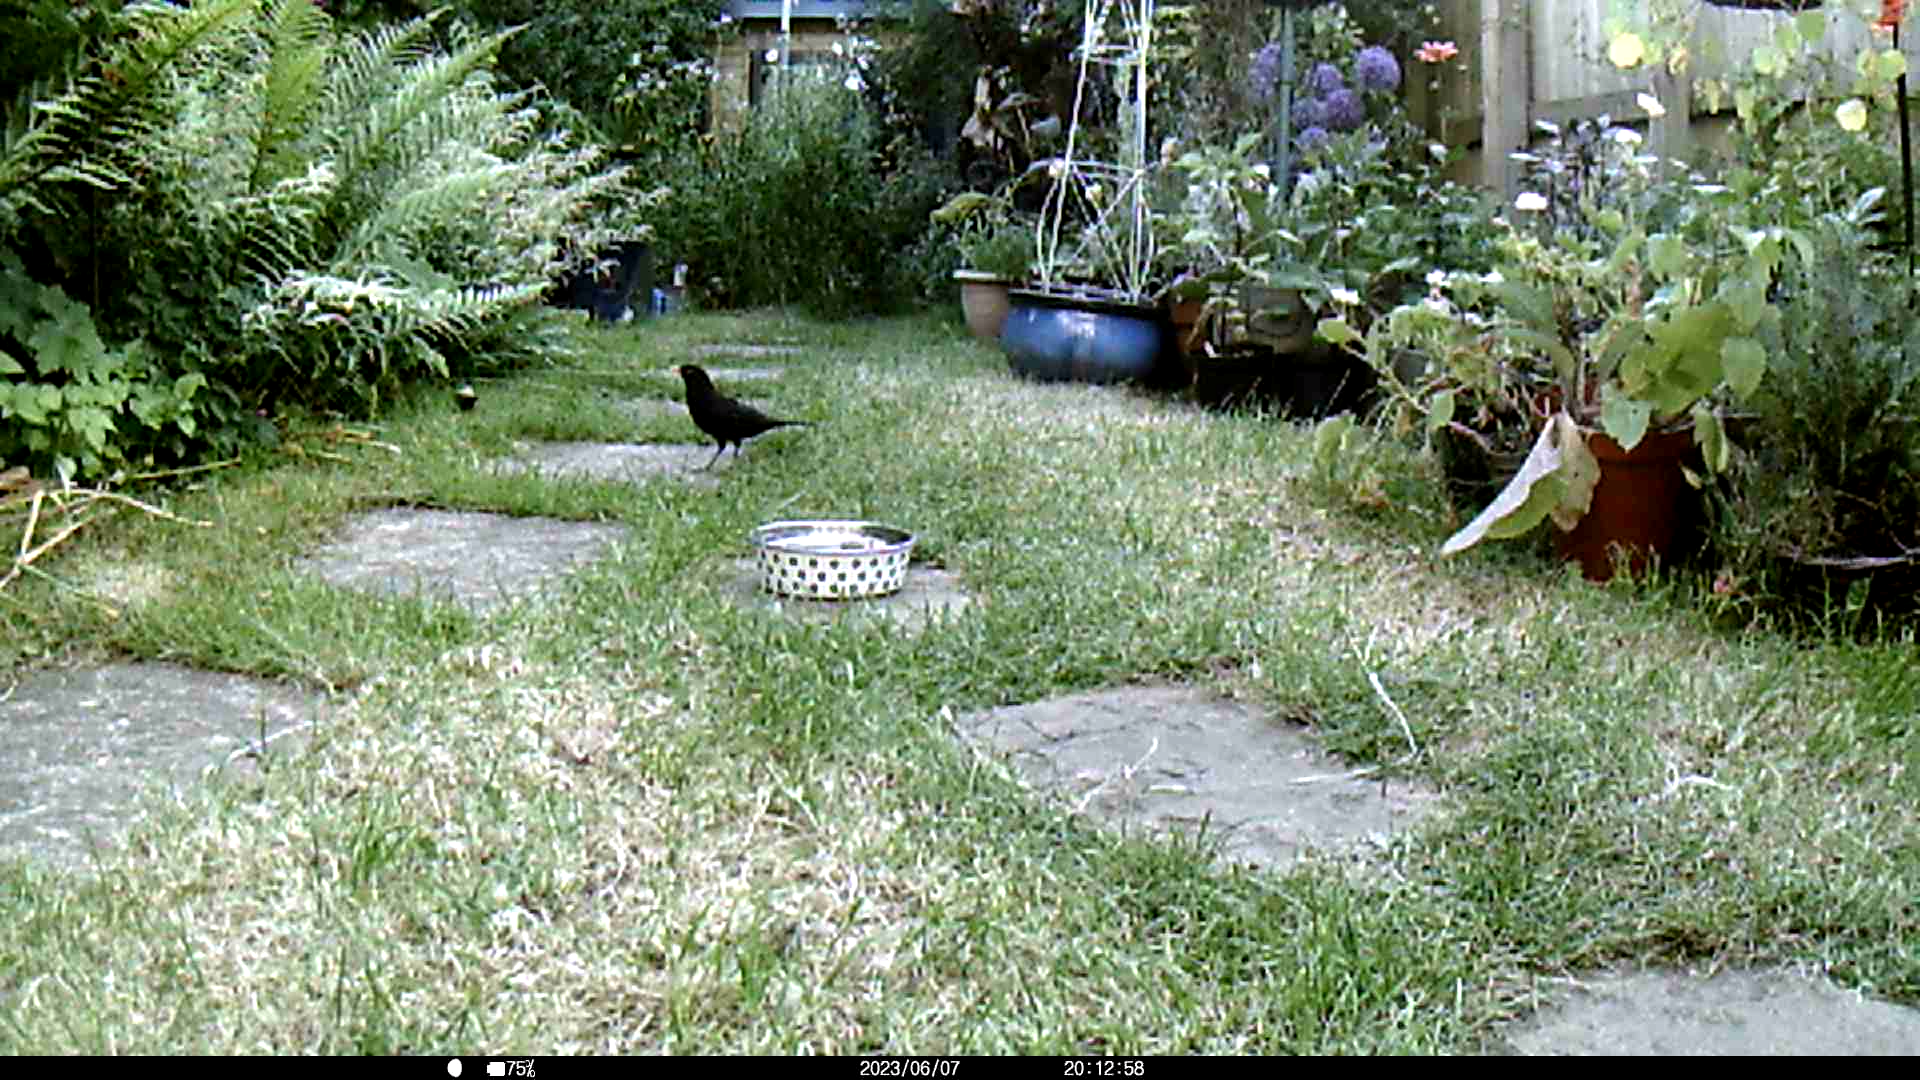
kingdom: Animalia
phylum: Chordata
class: Aves
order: Passeriformes
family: Turdidae
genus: Turdus
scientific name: Turdus merula
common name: Common blackbird
